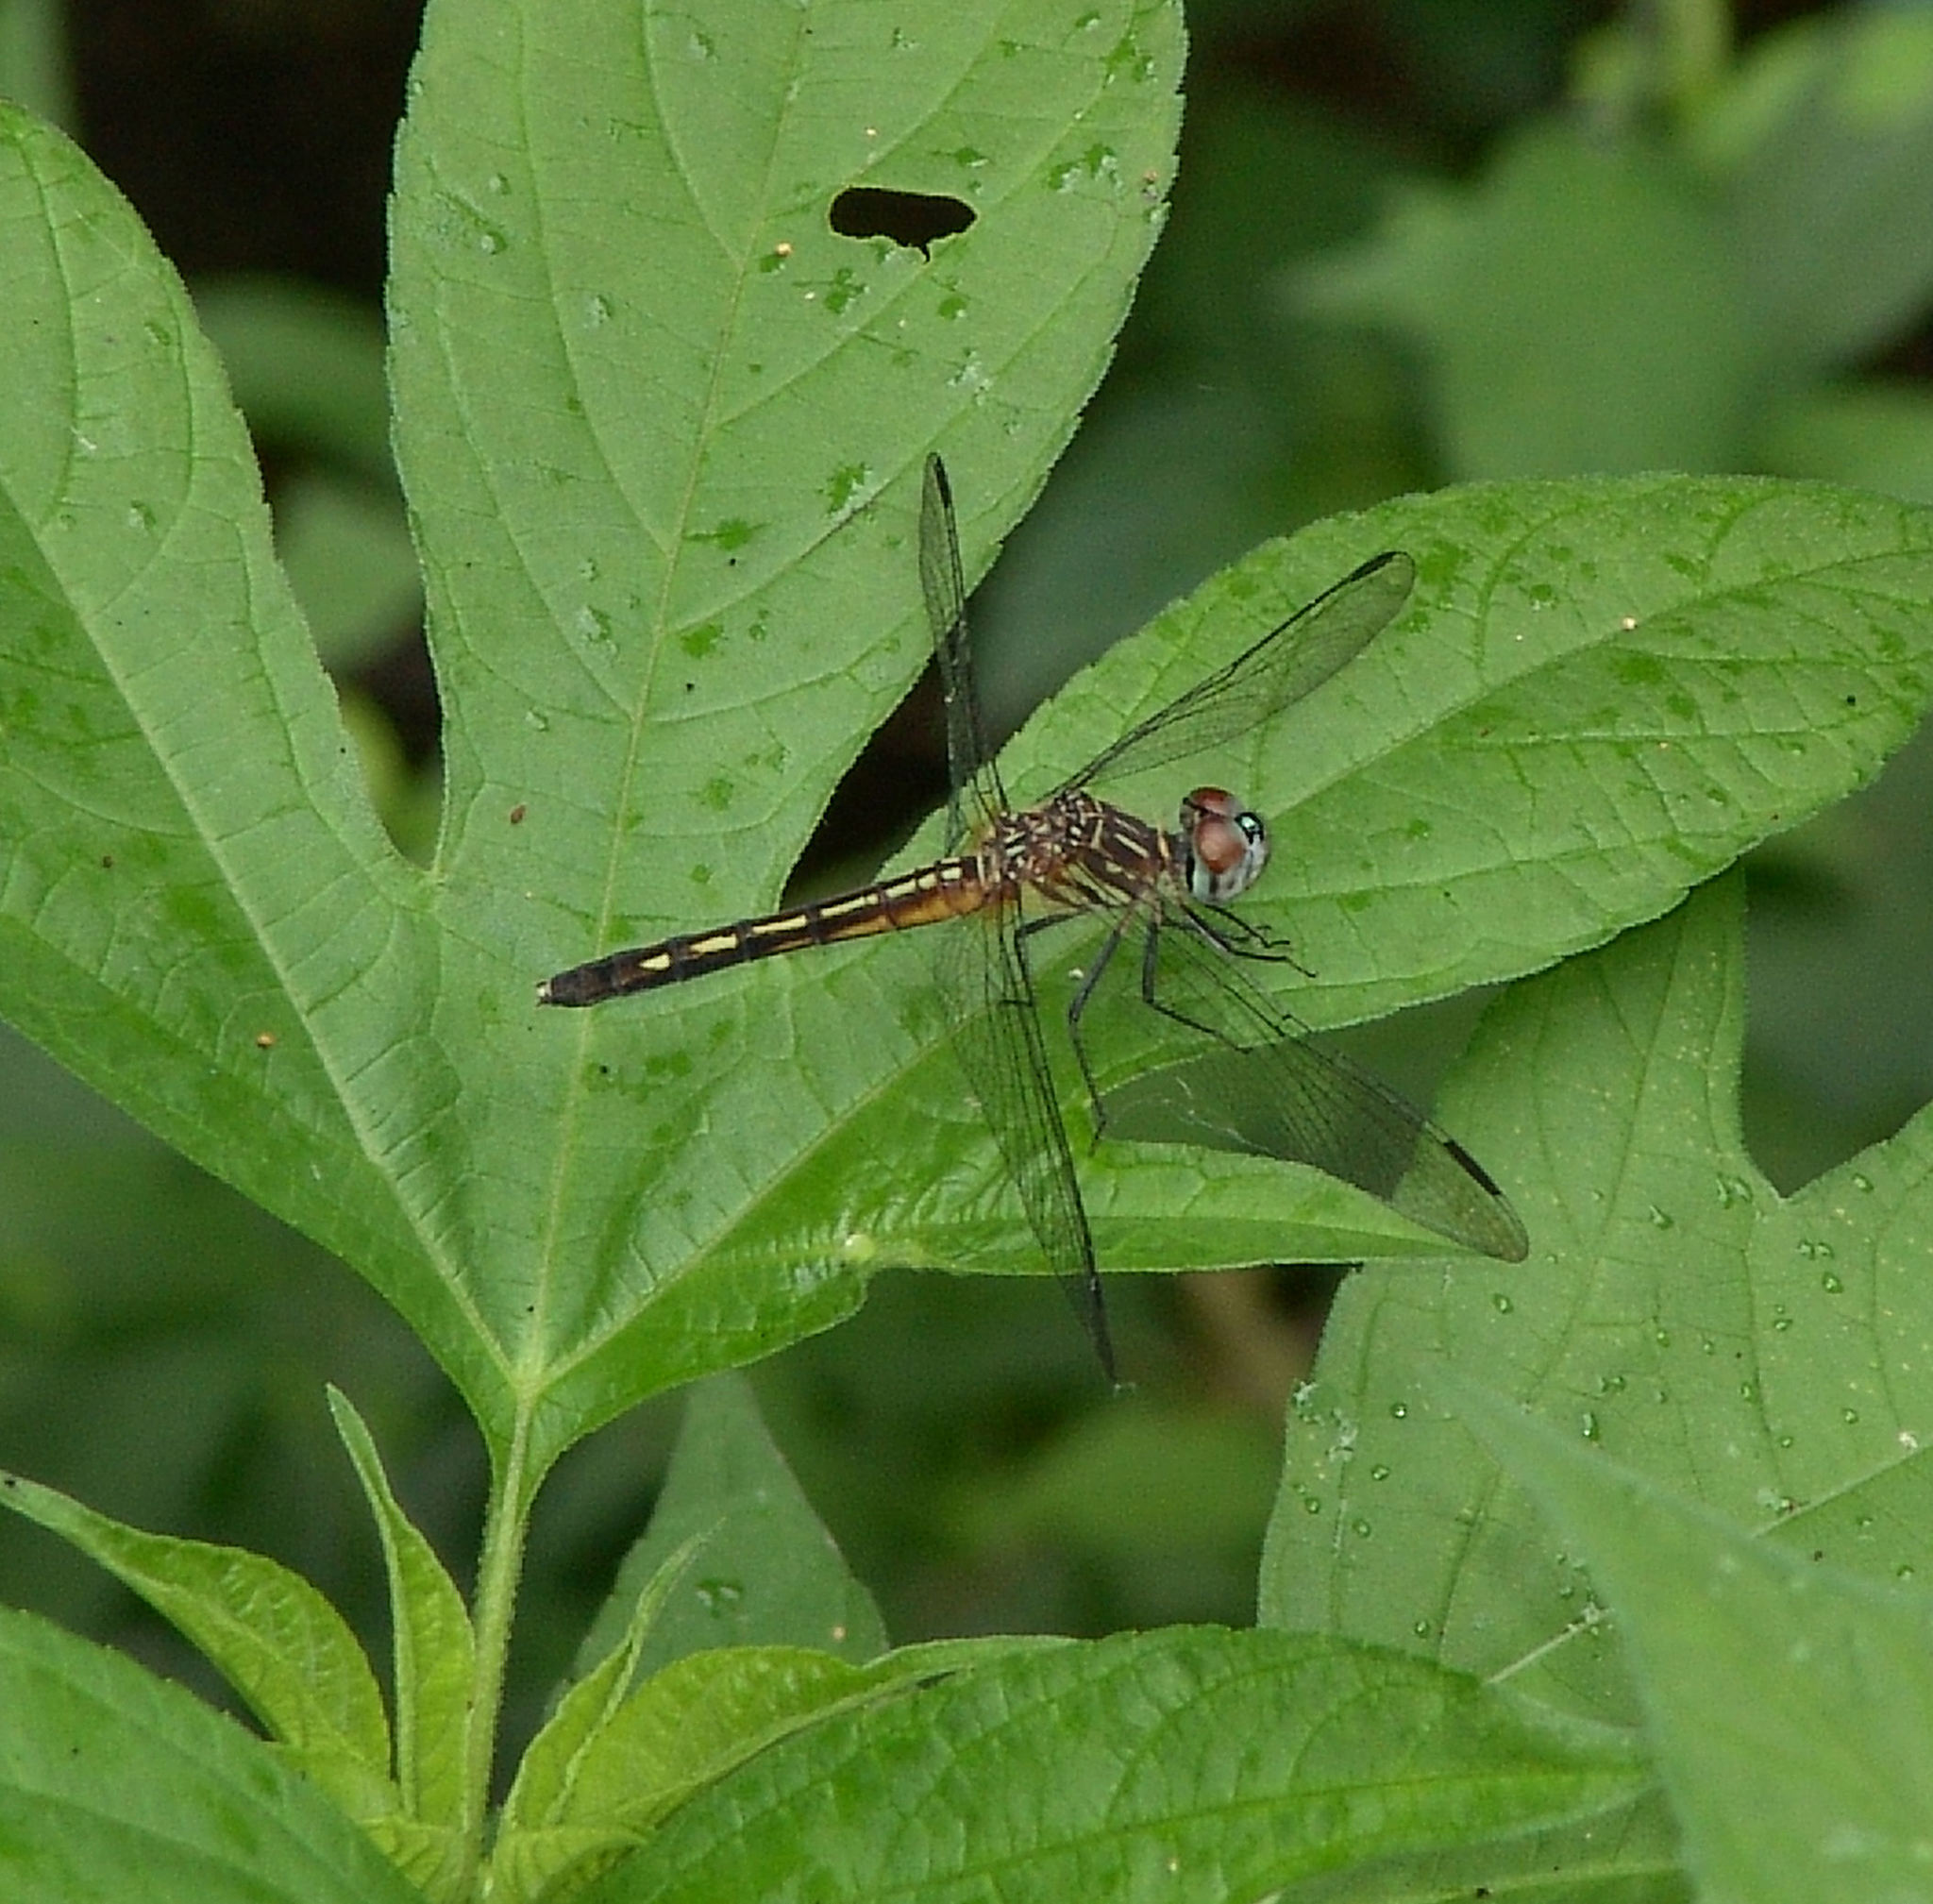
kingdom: Animalia
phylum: Arthropoda
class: Insecta
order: Odonata
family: Libellulidae
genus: Pachydiplax
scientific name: Pachydiplax longipennis
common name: Blue dasher
